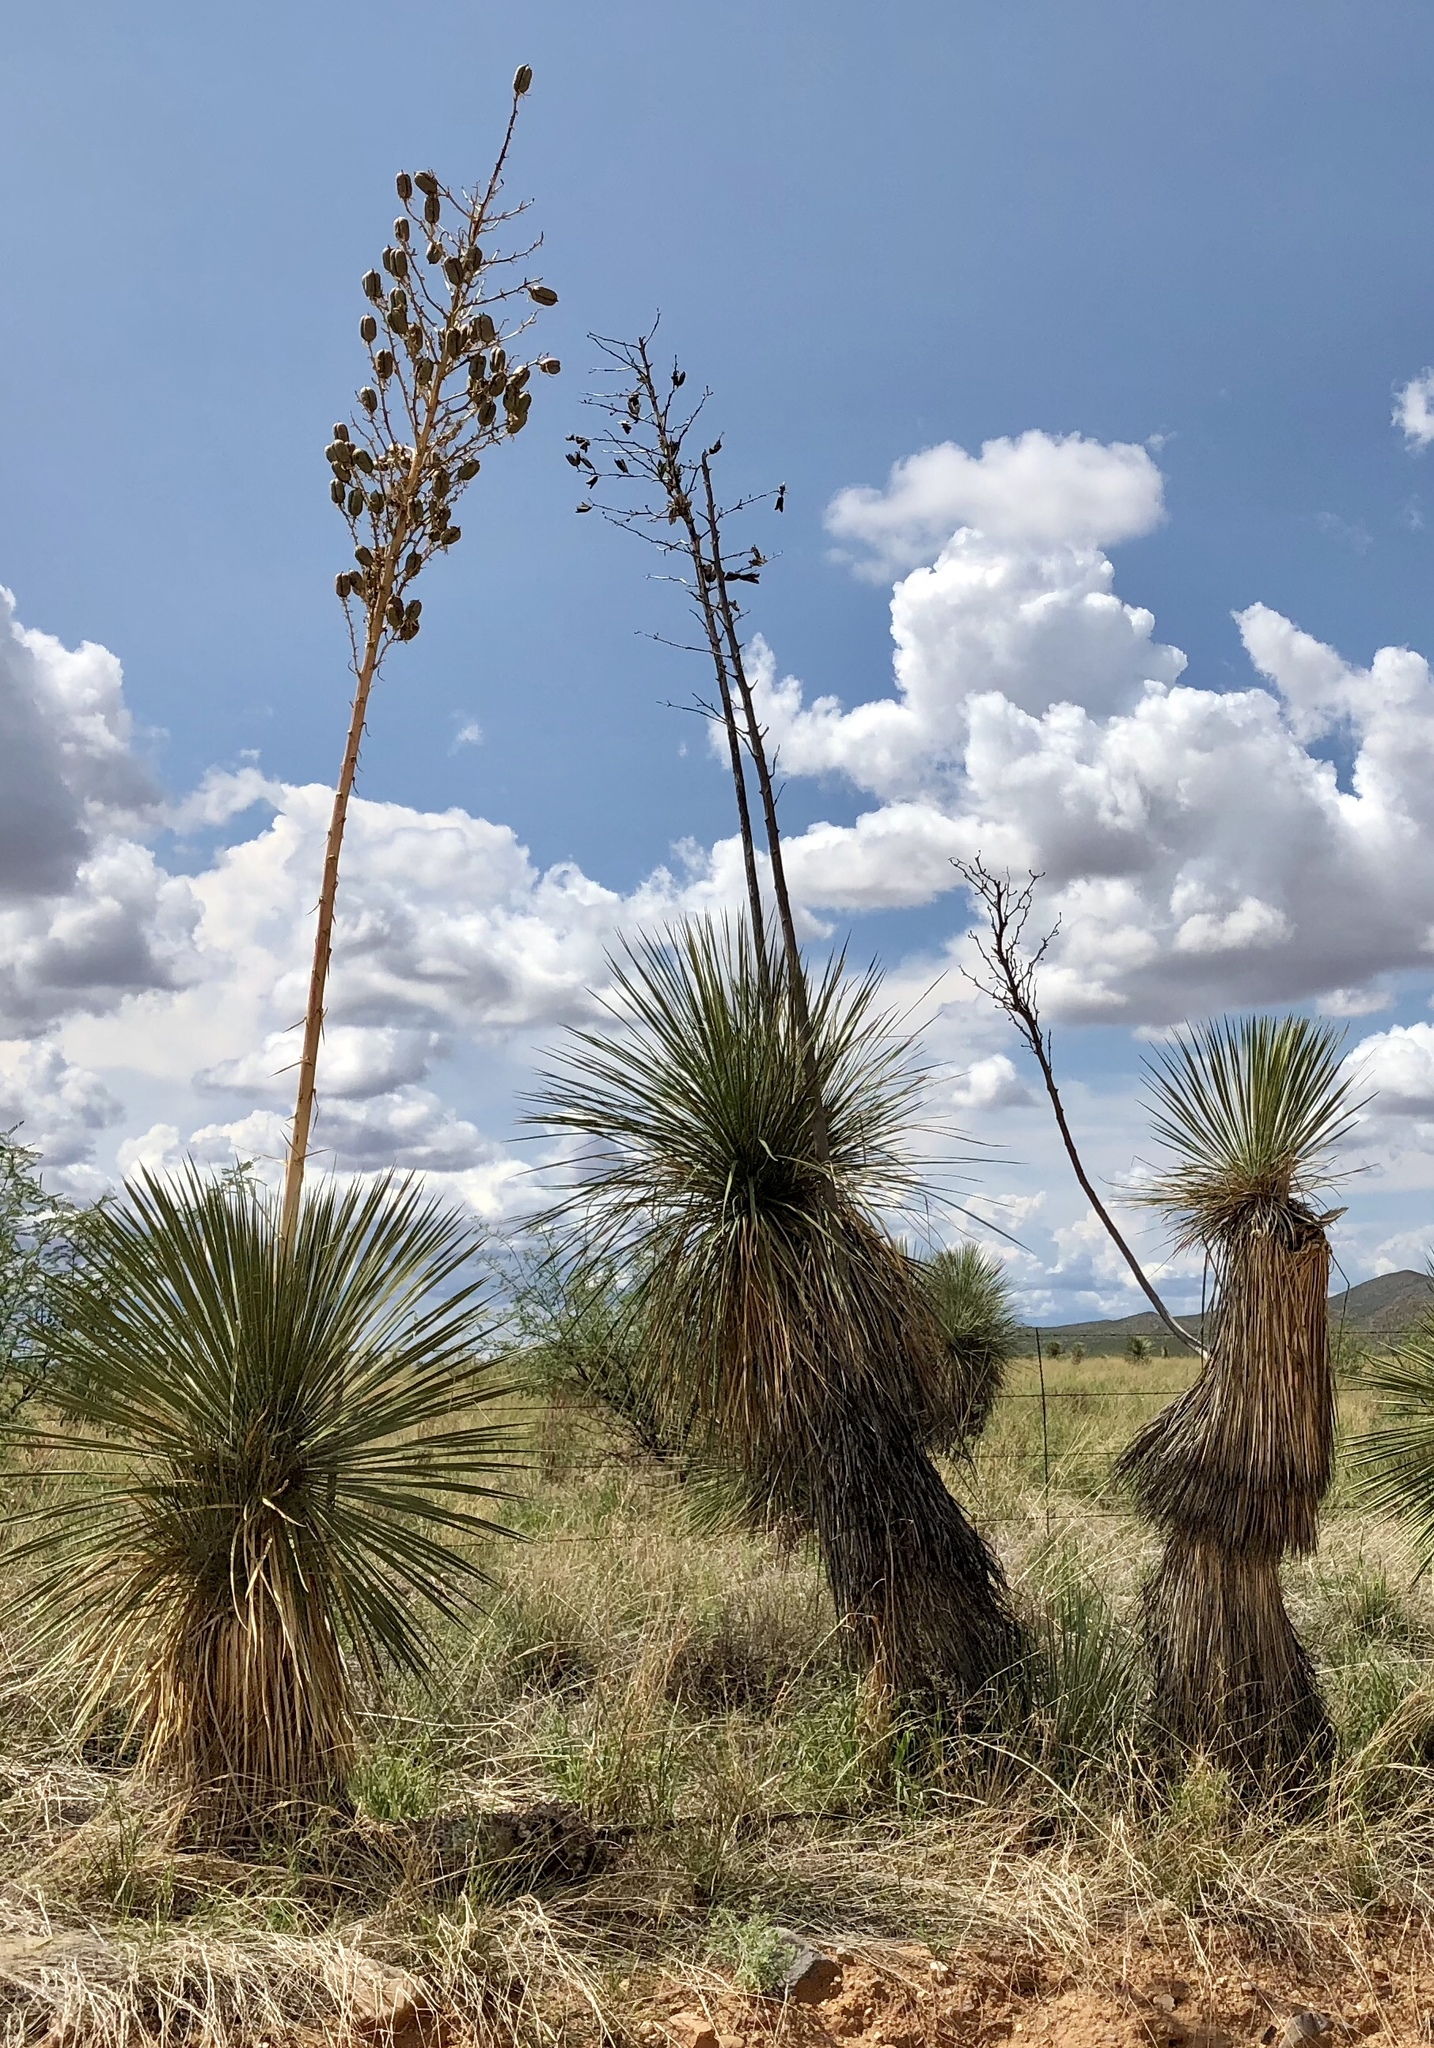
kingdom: Plantae
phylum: Tracheophyta
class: Liliopsida
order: Asparagales
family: Asparagaceae
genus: Yucca
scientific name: Yucca elata
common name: Palmella
